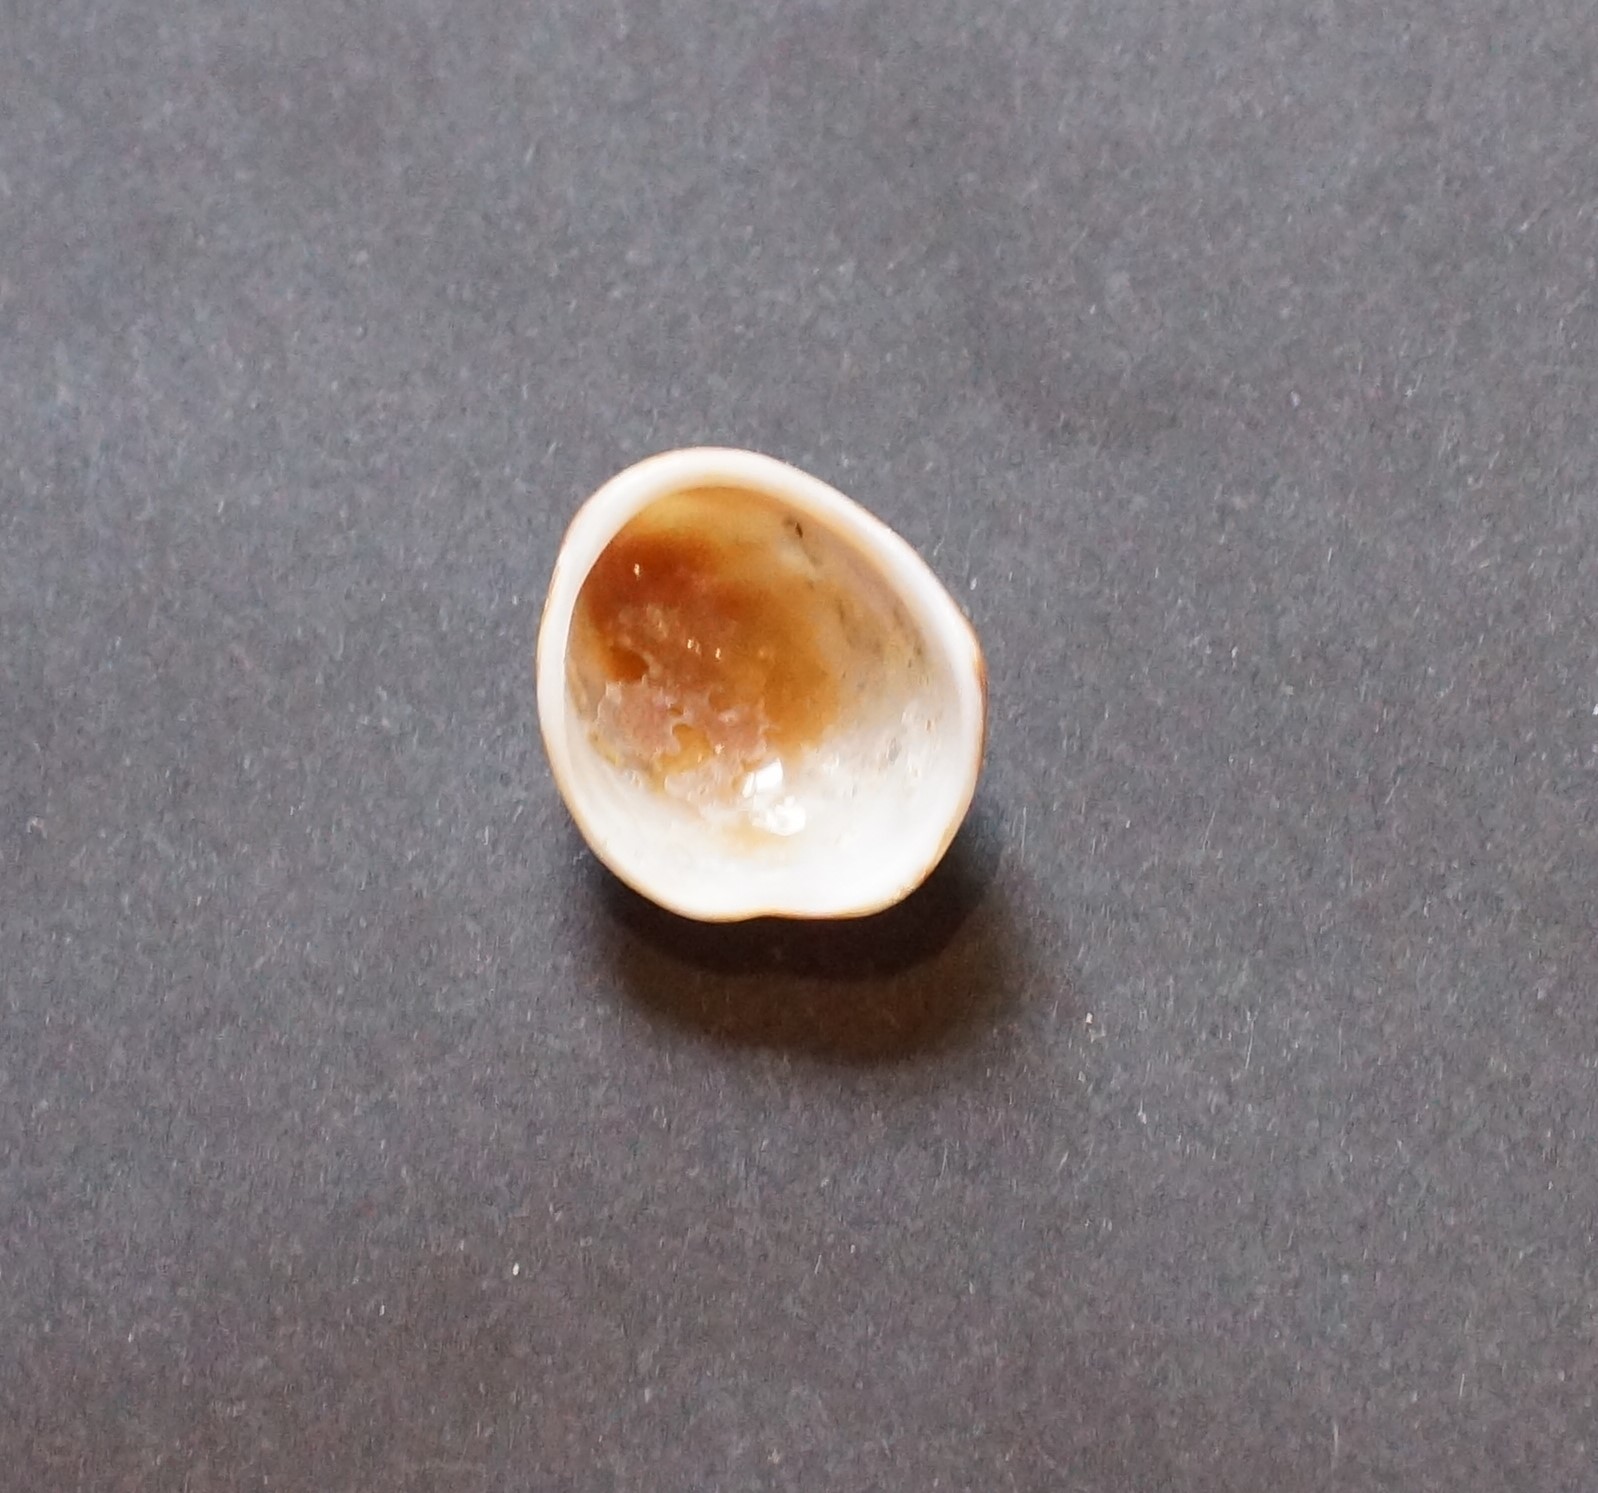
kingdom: Animalia
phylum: Mollusca
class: Gastropoda
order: Littorinimorpha
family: Hipponicidae
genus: Sabia
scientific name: Sabia australis
